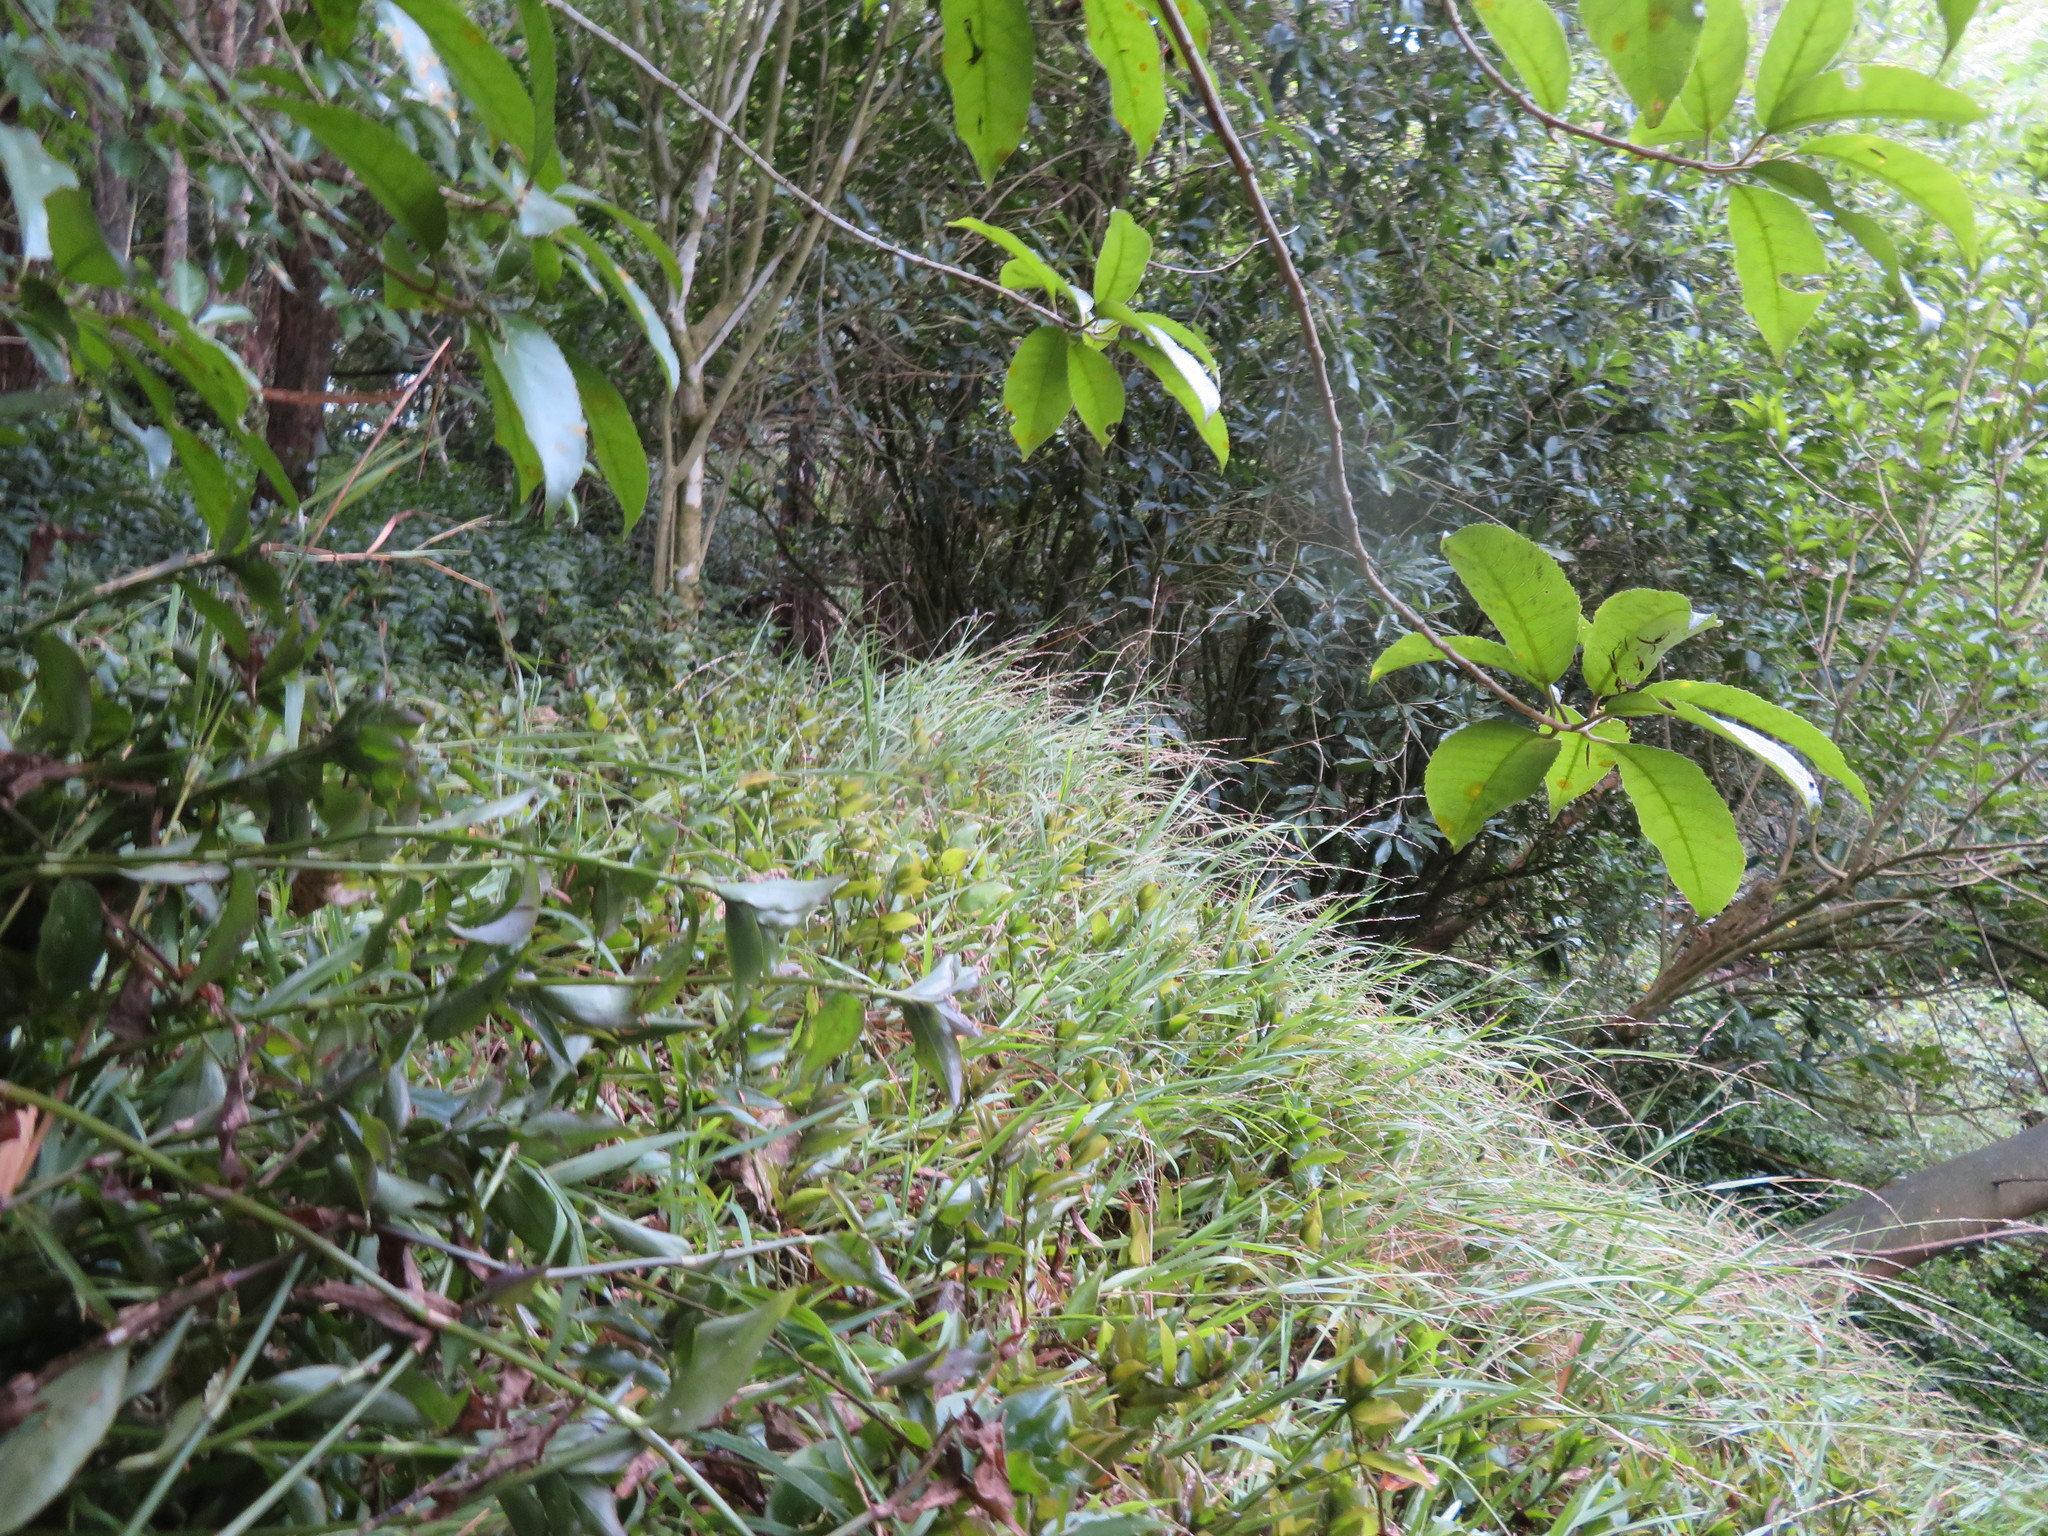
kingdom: Plantae
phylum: Tracheophyta
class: Magnoliopsida
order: Malpighiales
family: Violaceae
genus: Melicytus
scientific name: Melicytus ramiflorus
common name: Mahoe
